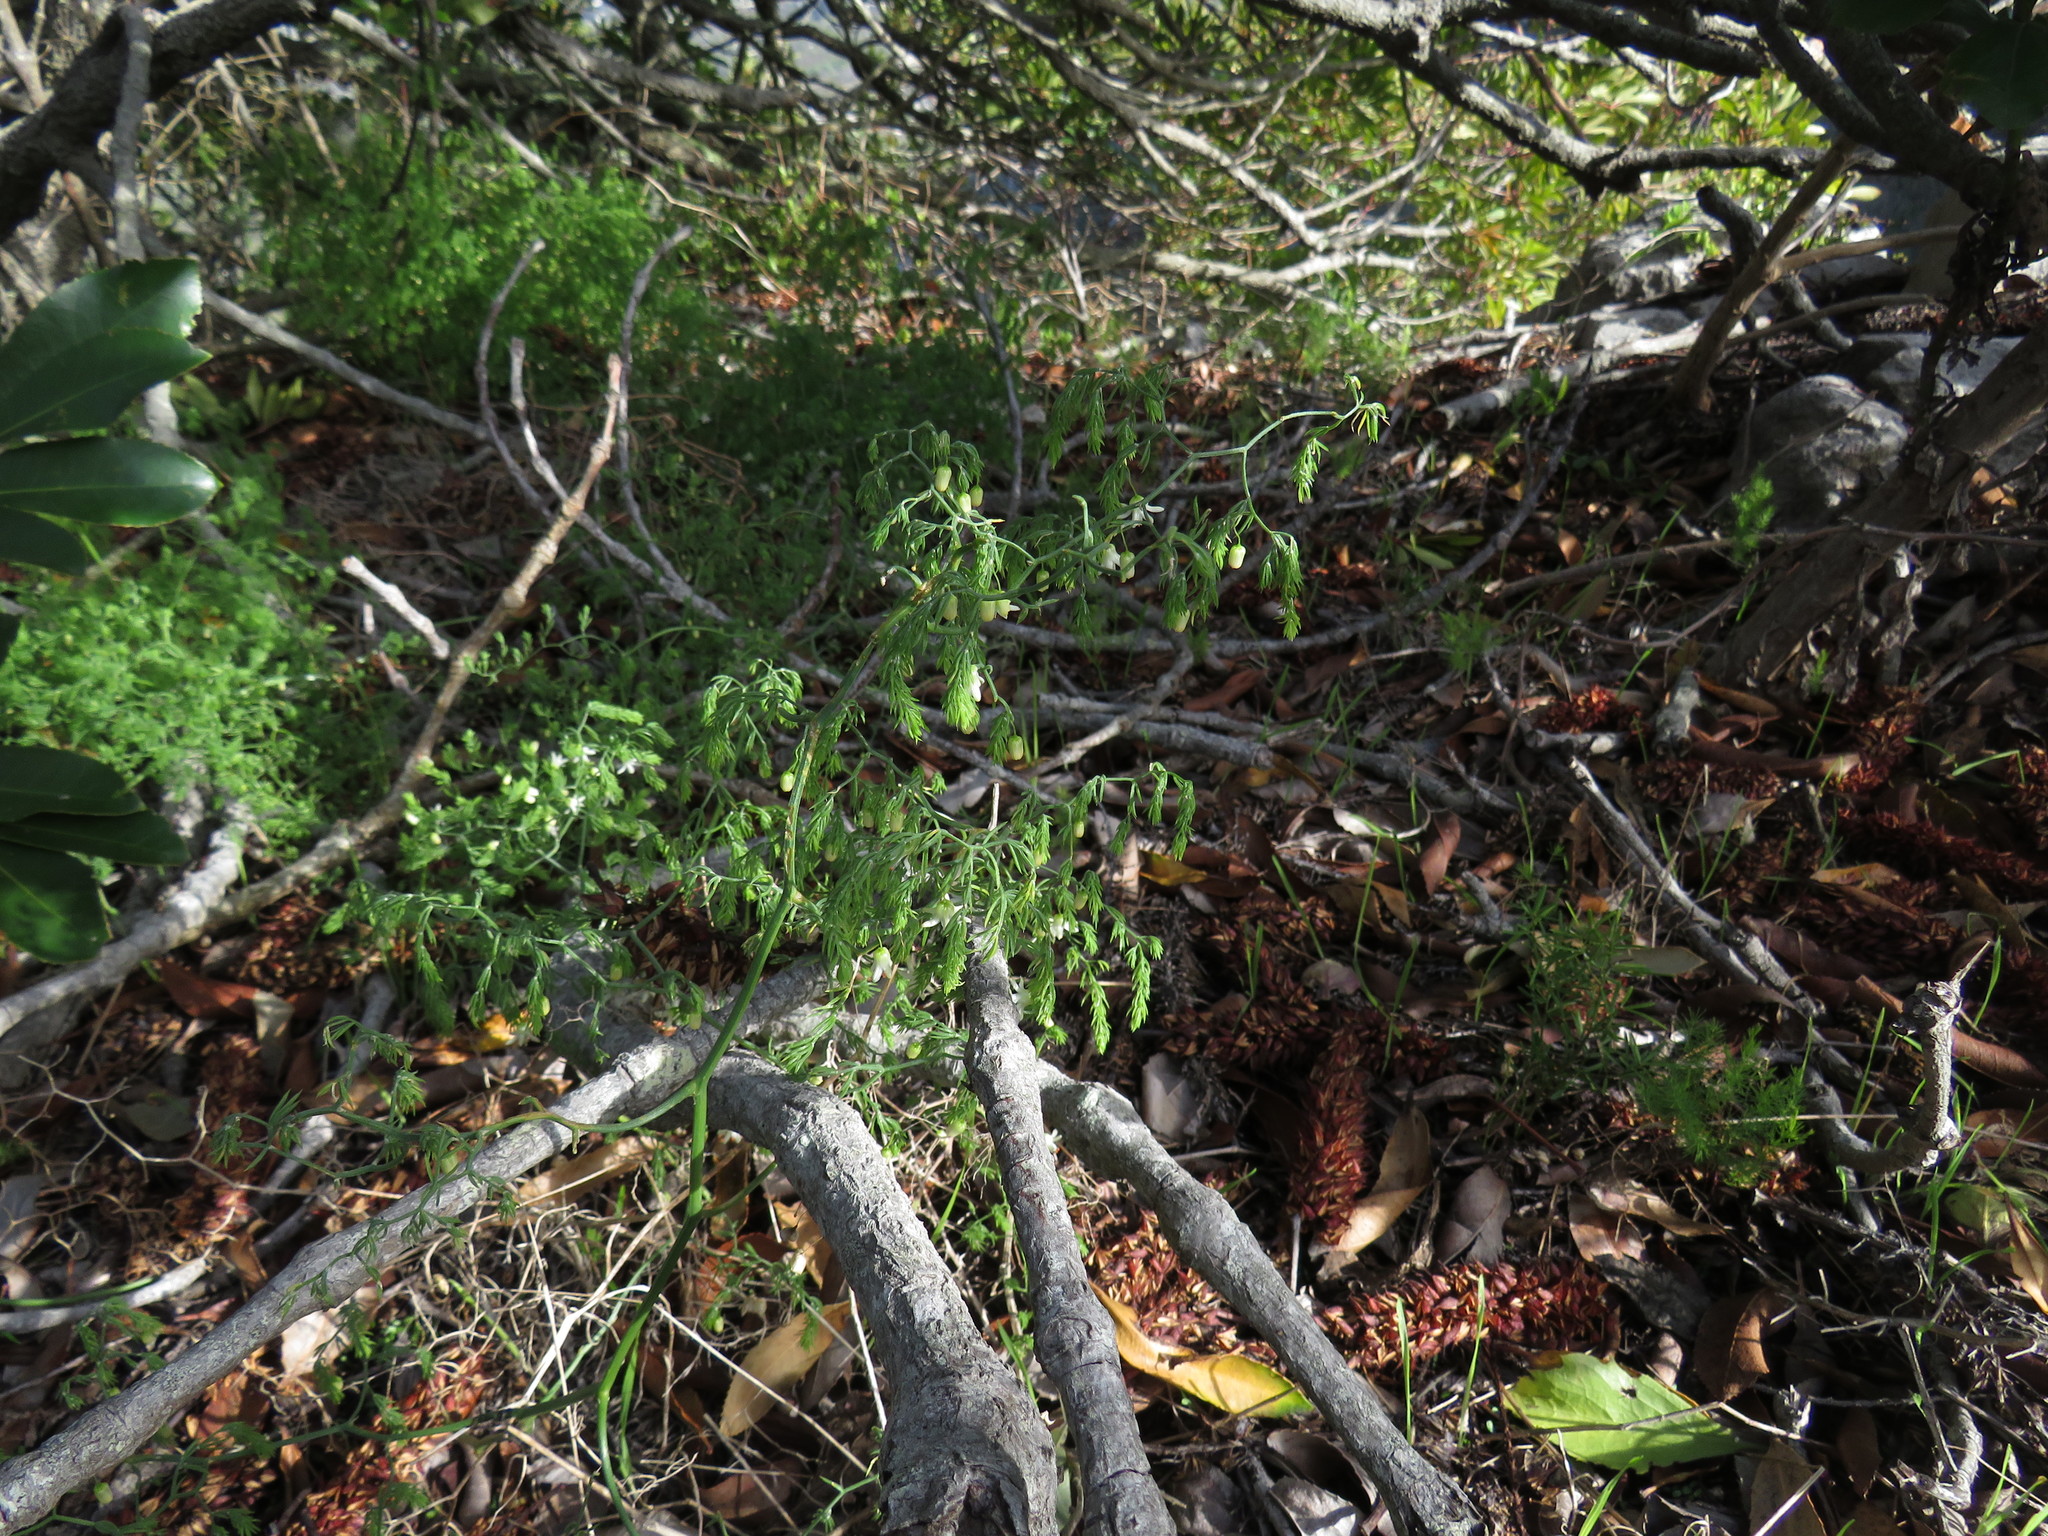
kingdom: Plantae
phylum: Tracheophyta
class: Liliopsida
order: Asparagales
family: Asparagaceae
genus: Asparagus
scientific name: Asparagus declinatus
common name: Bridal-creeper
